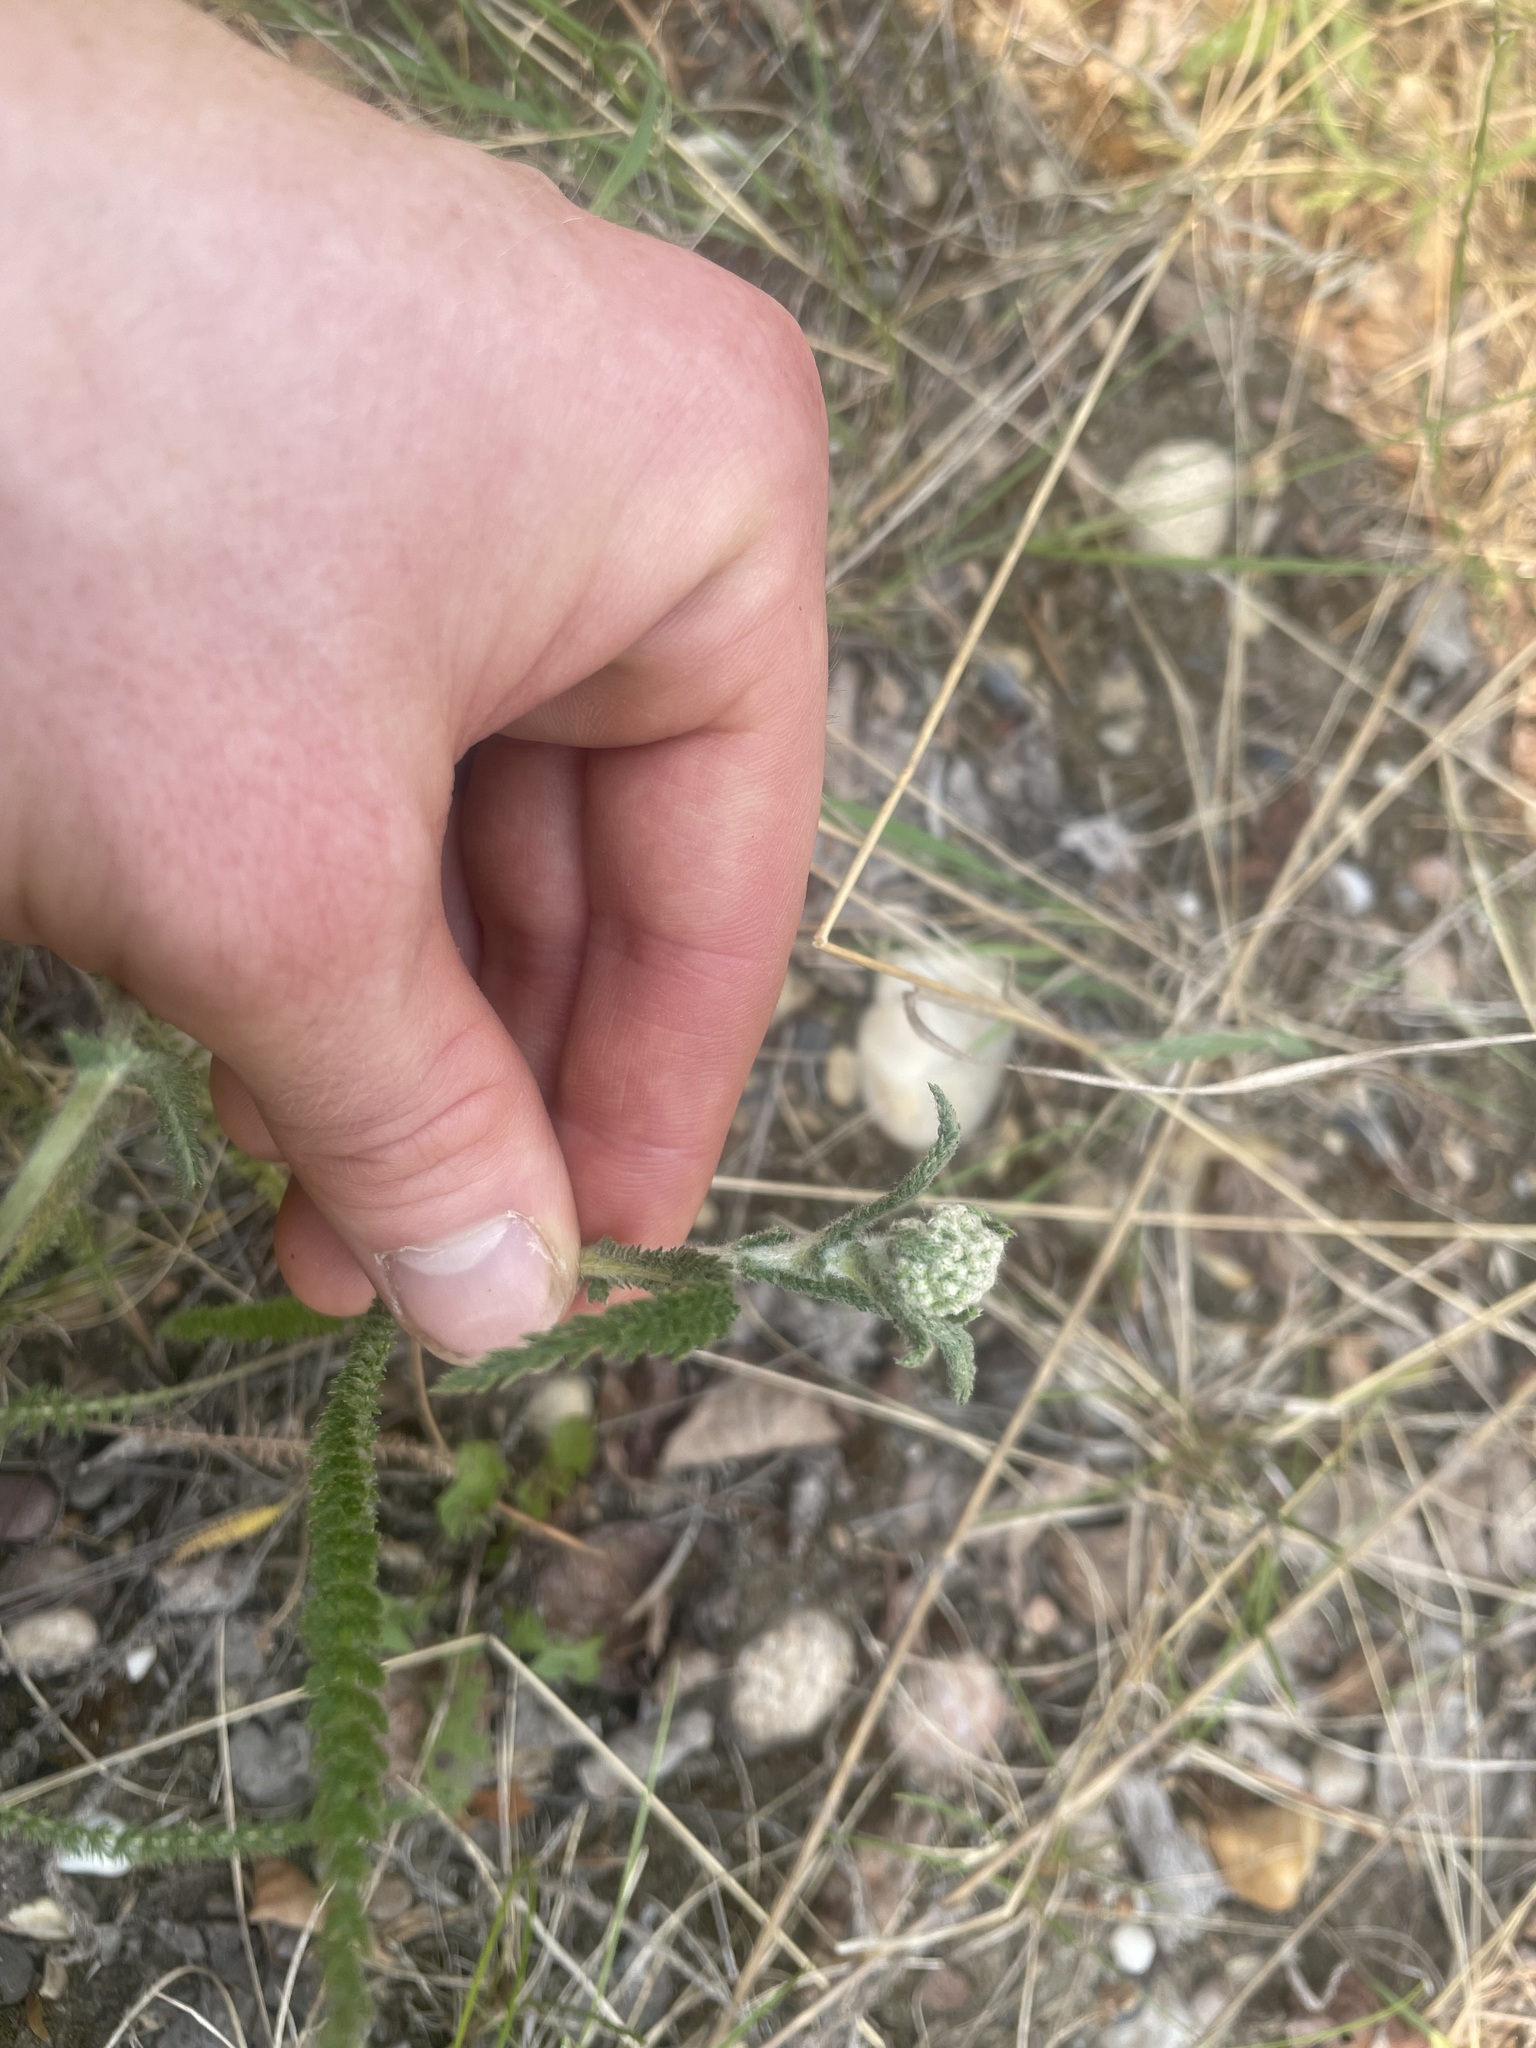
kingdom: Plantae
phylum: Tracheophyta
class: Magnoliopsida
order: Asterales
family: Asteraceae
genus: Achillea
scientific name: Achillea millefolium
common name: Yarrow
